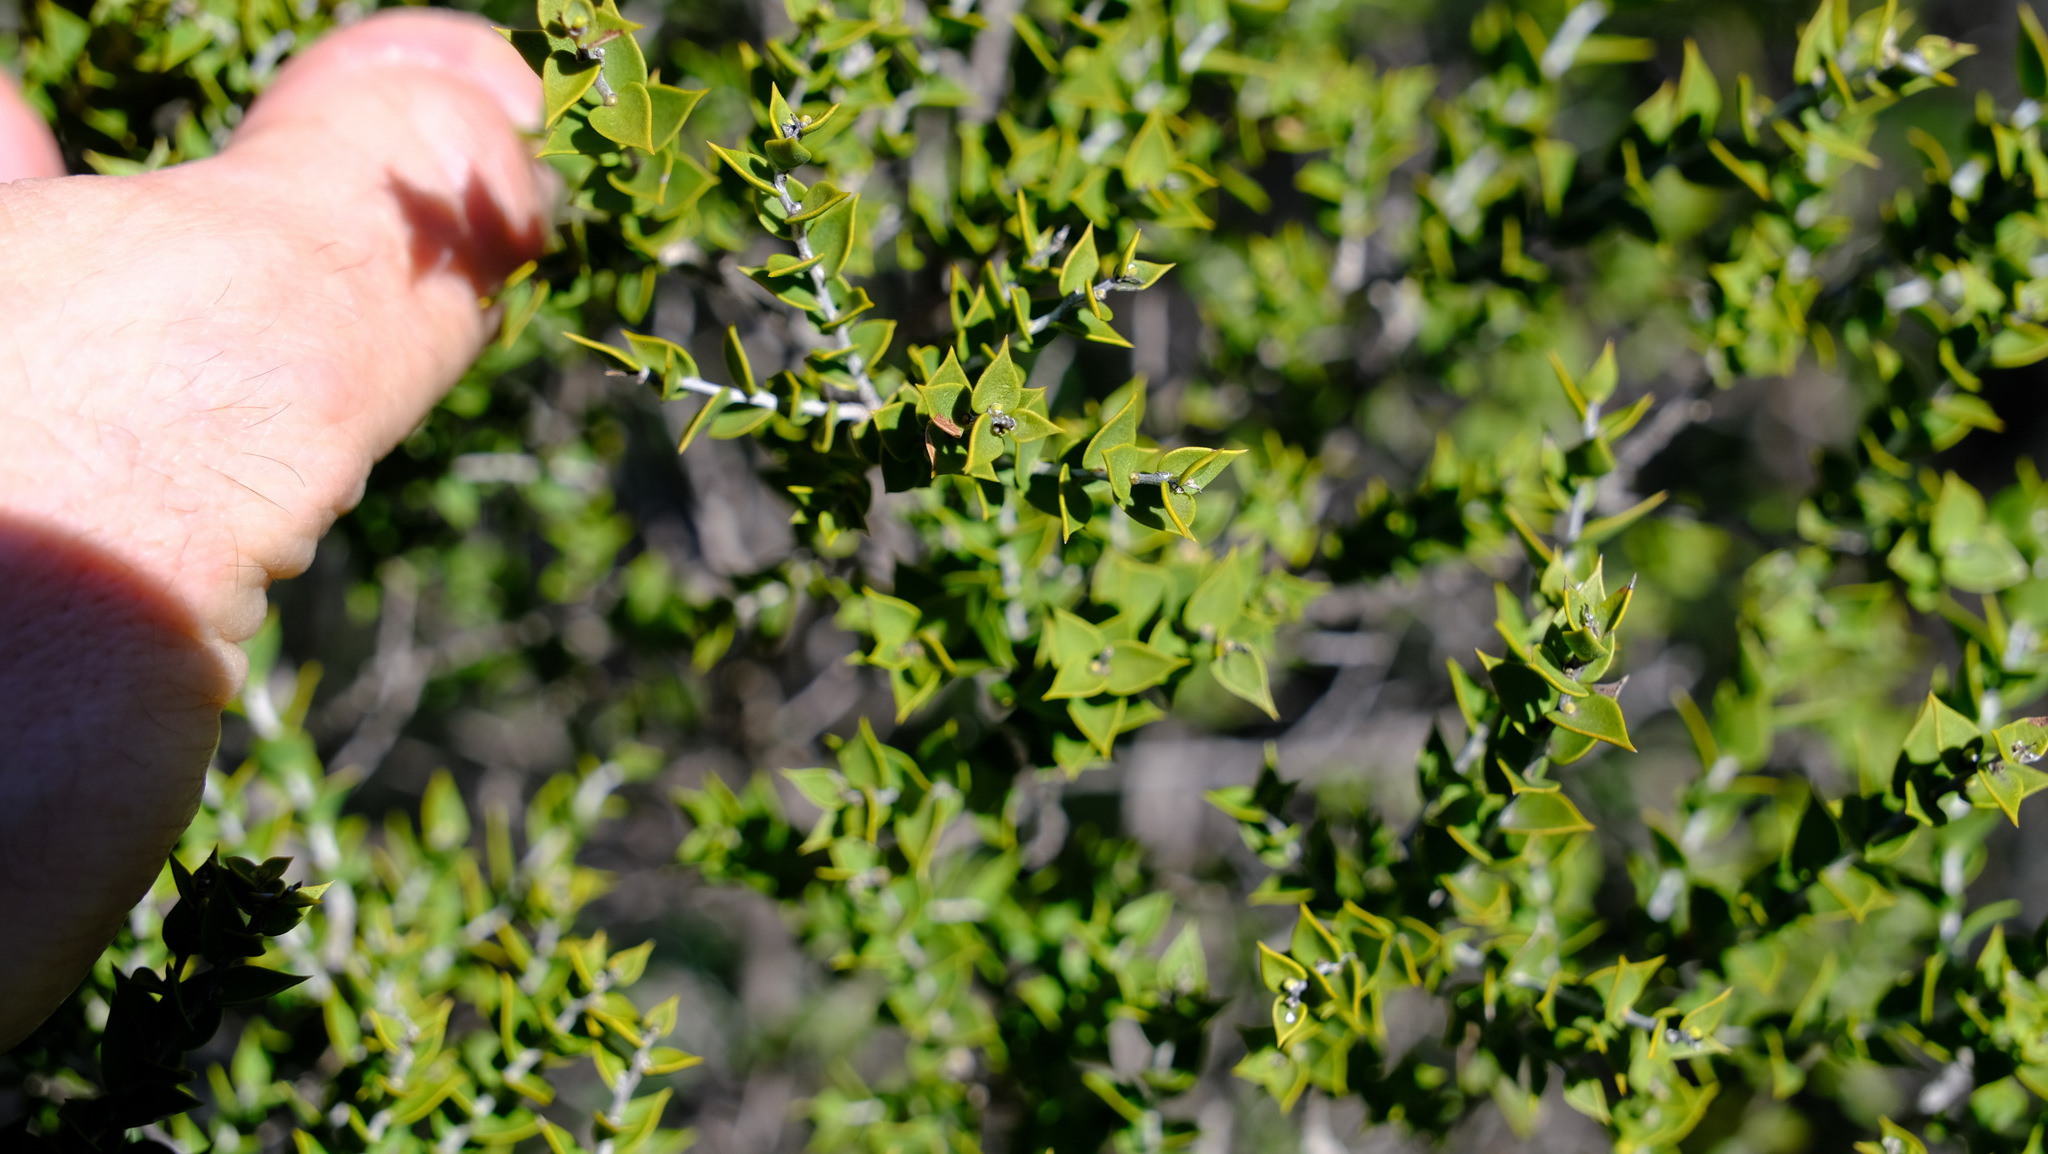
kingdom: Plantae
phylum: Tracheophyta
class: Magnoliopsida
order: Myrtales
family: Myrtaceae
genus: Melaleuca
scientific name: Melaleuca cardiophylla
